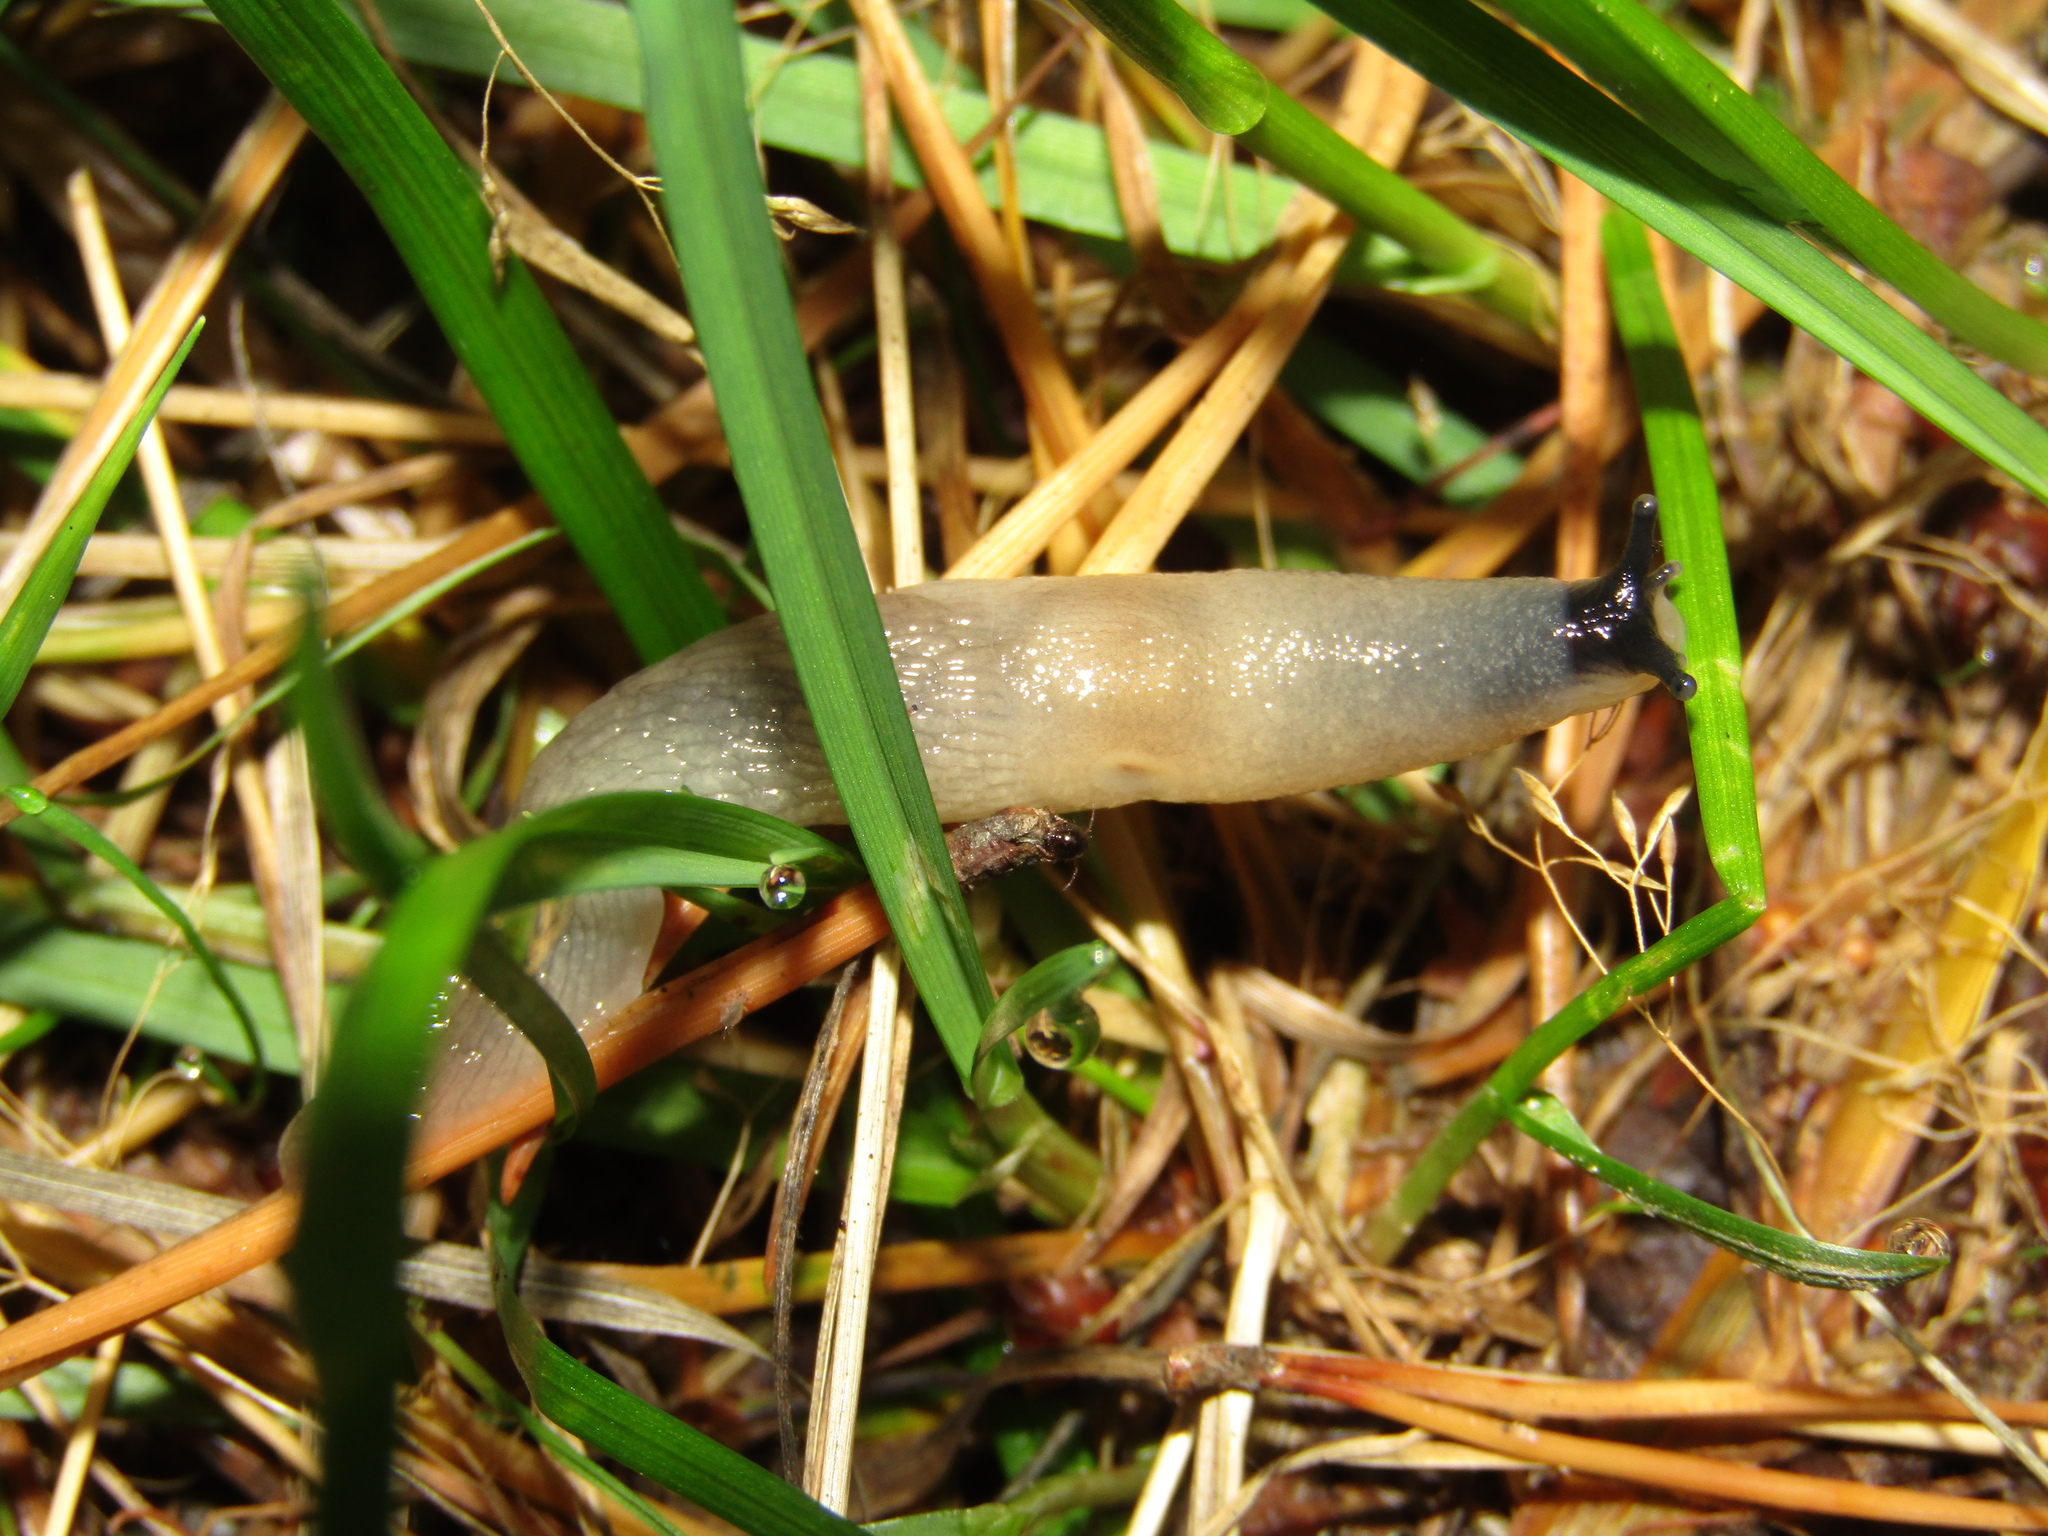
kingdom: Animalia
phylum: Mollusca
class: Gastropoda
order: Stylommatophora
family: Agriolimacidae
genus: Krynickillus
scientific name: Krynickillus melanocephalus
